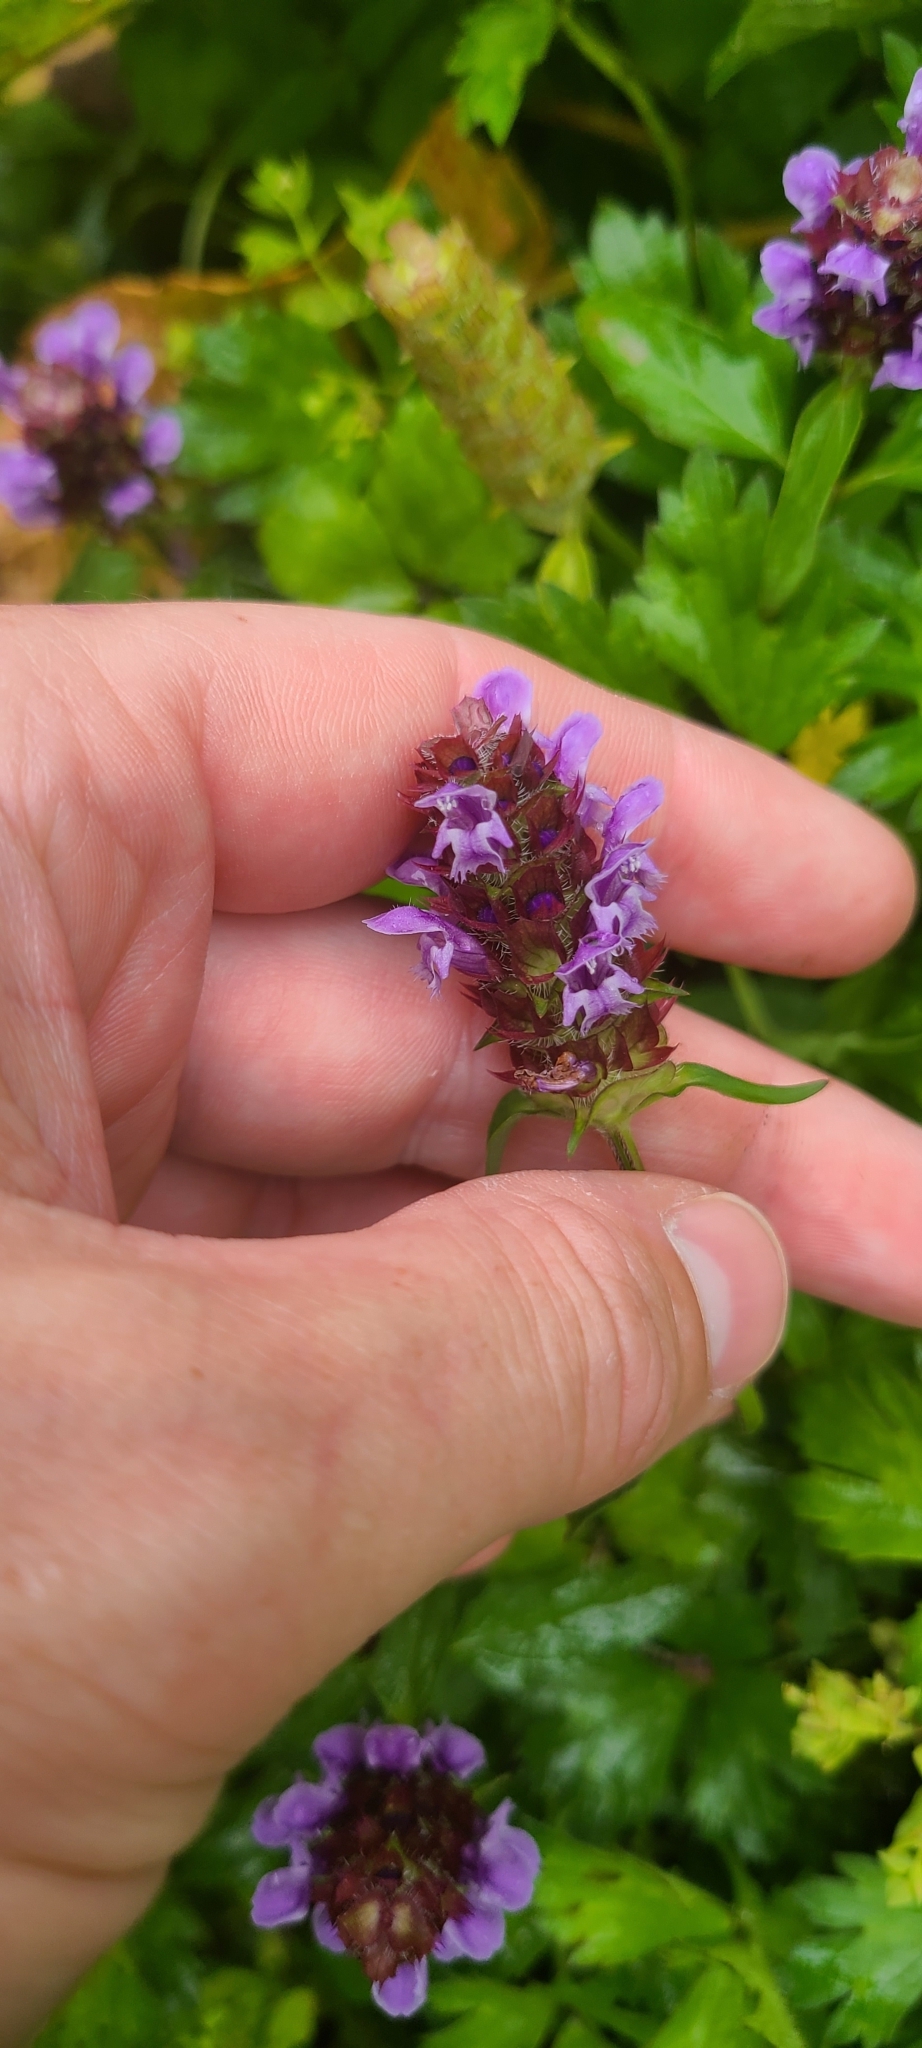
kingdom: Plantae
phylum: Tracheophyta
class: Magnoliopsida
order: Lamiales
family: Lamiaceae
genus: Prunella
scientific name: Prunella vulgaris
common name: Heal-all
